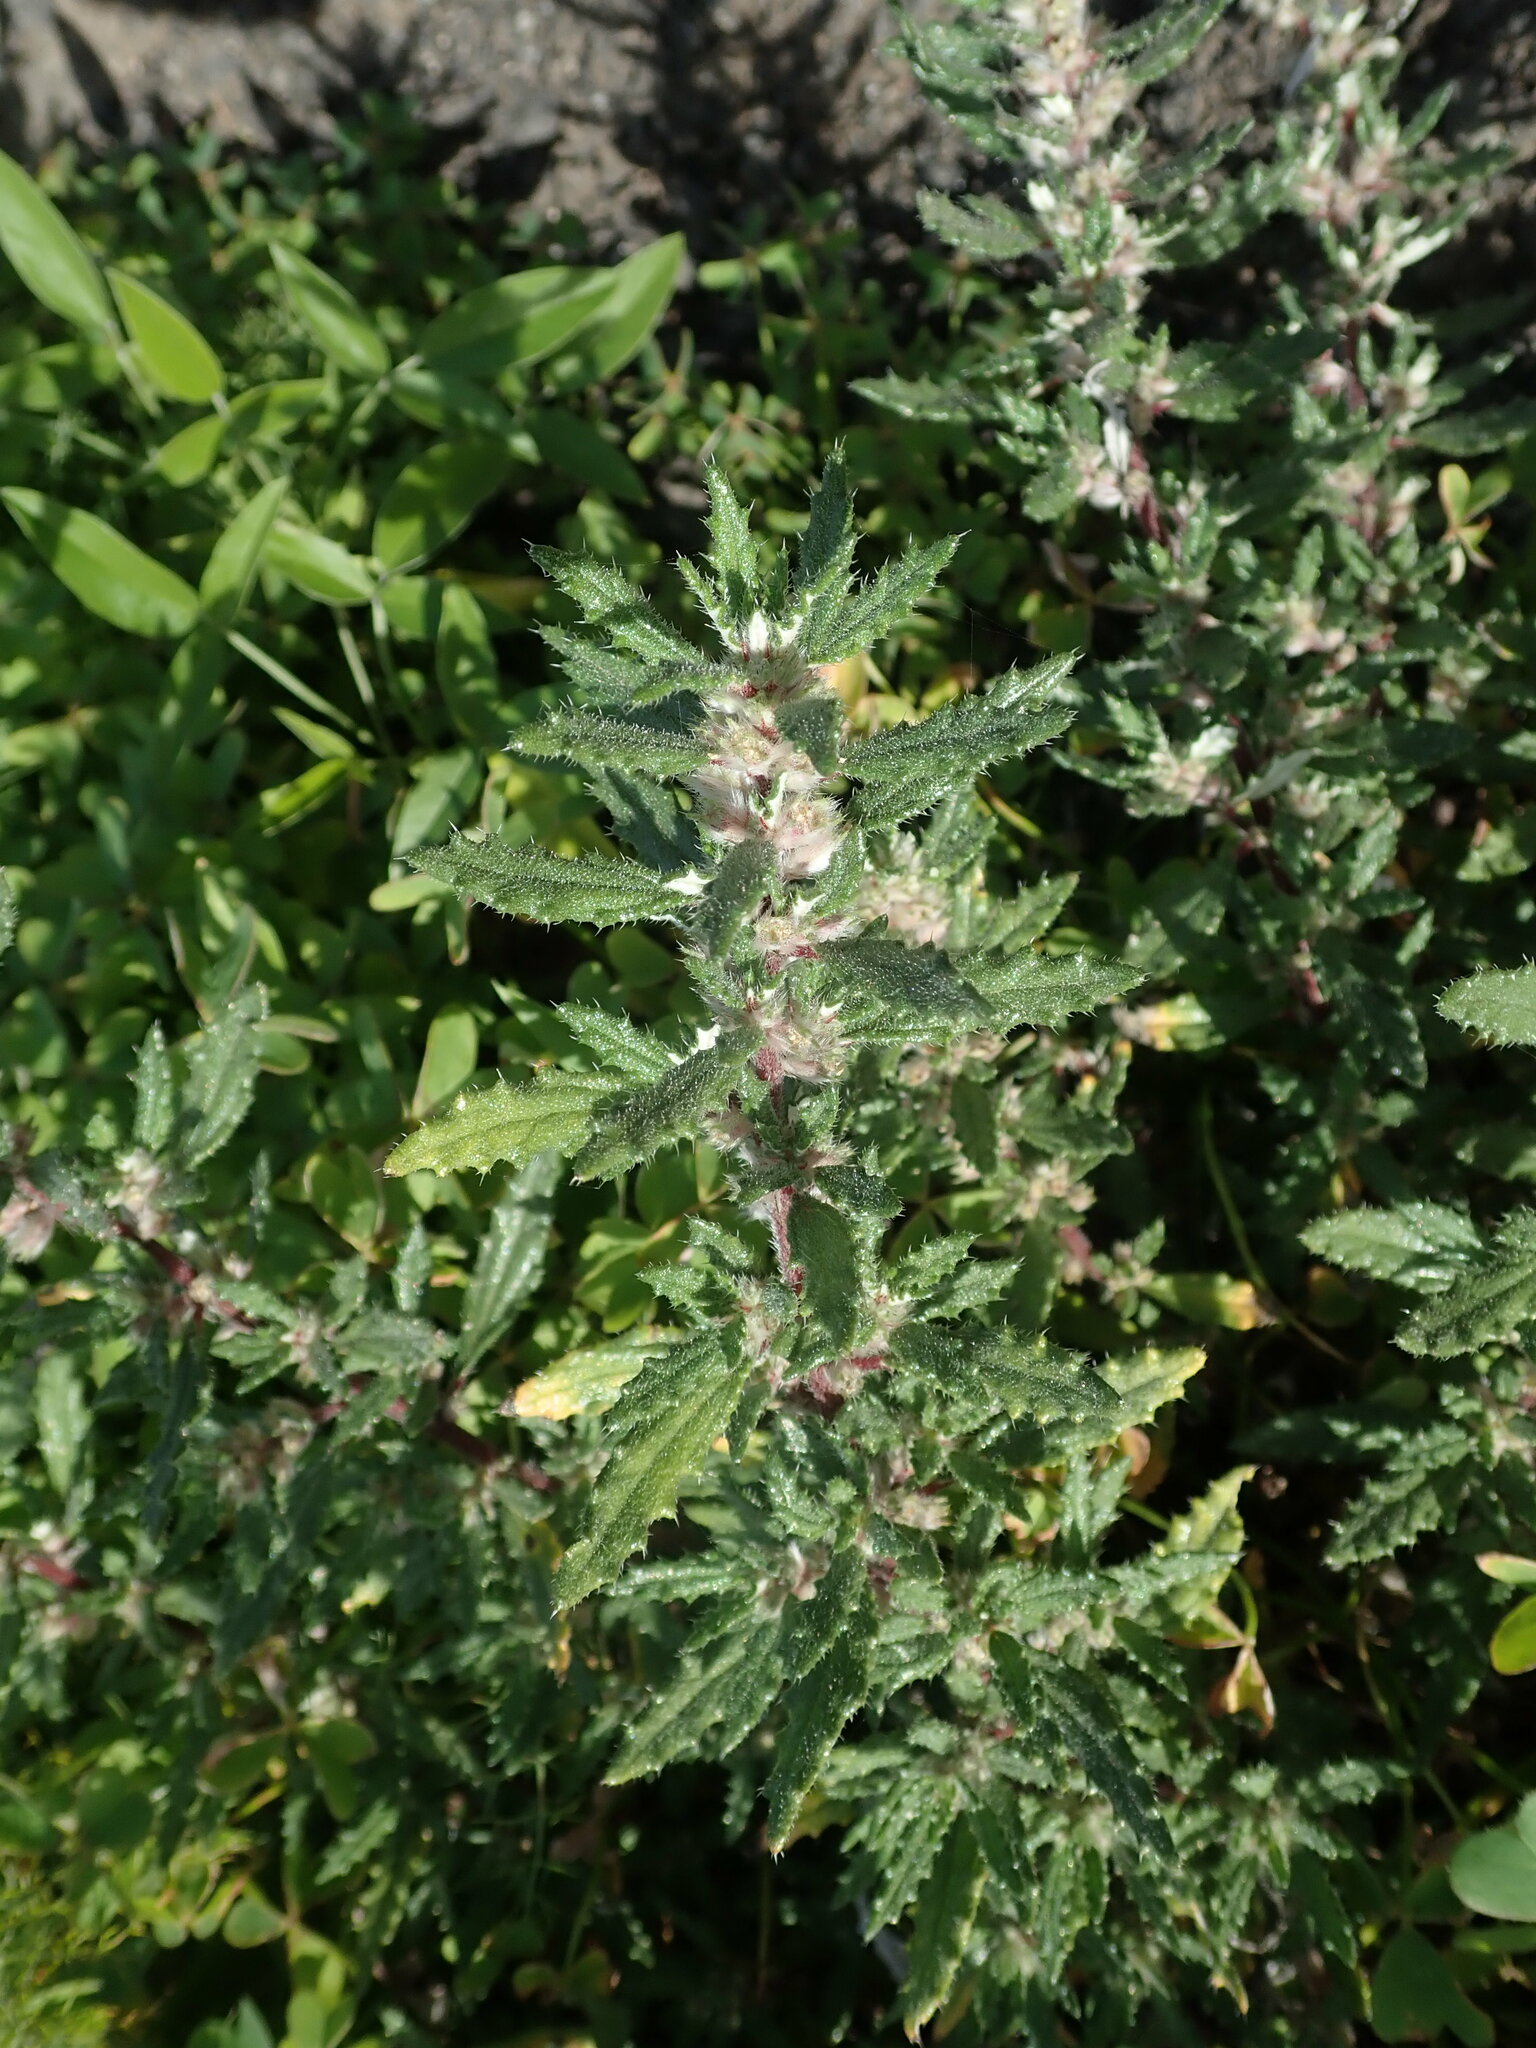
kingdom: Plantae
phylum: Tracheophyta
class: Magnoliopsida
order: Rosales
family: Urticaceae
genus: Forsskaolea
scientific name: Forsskaolea angustifolia
